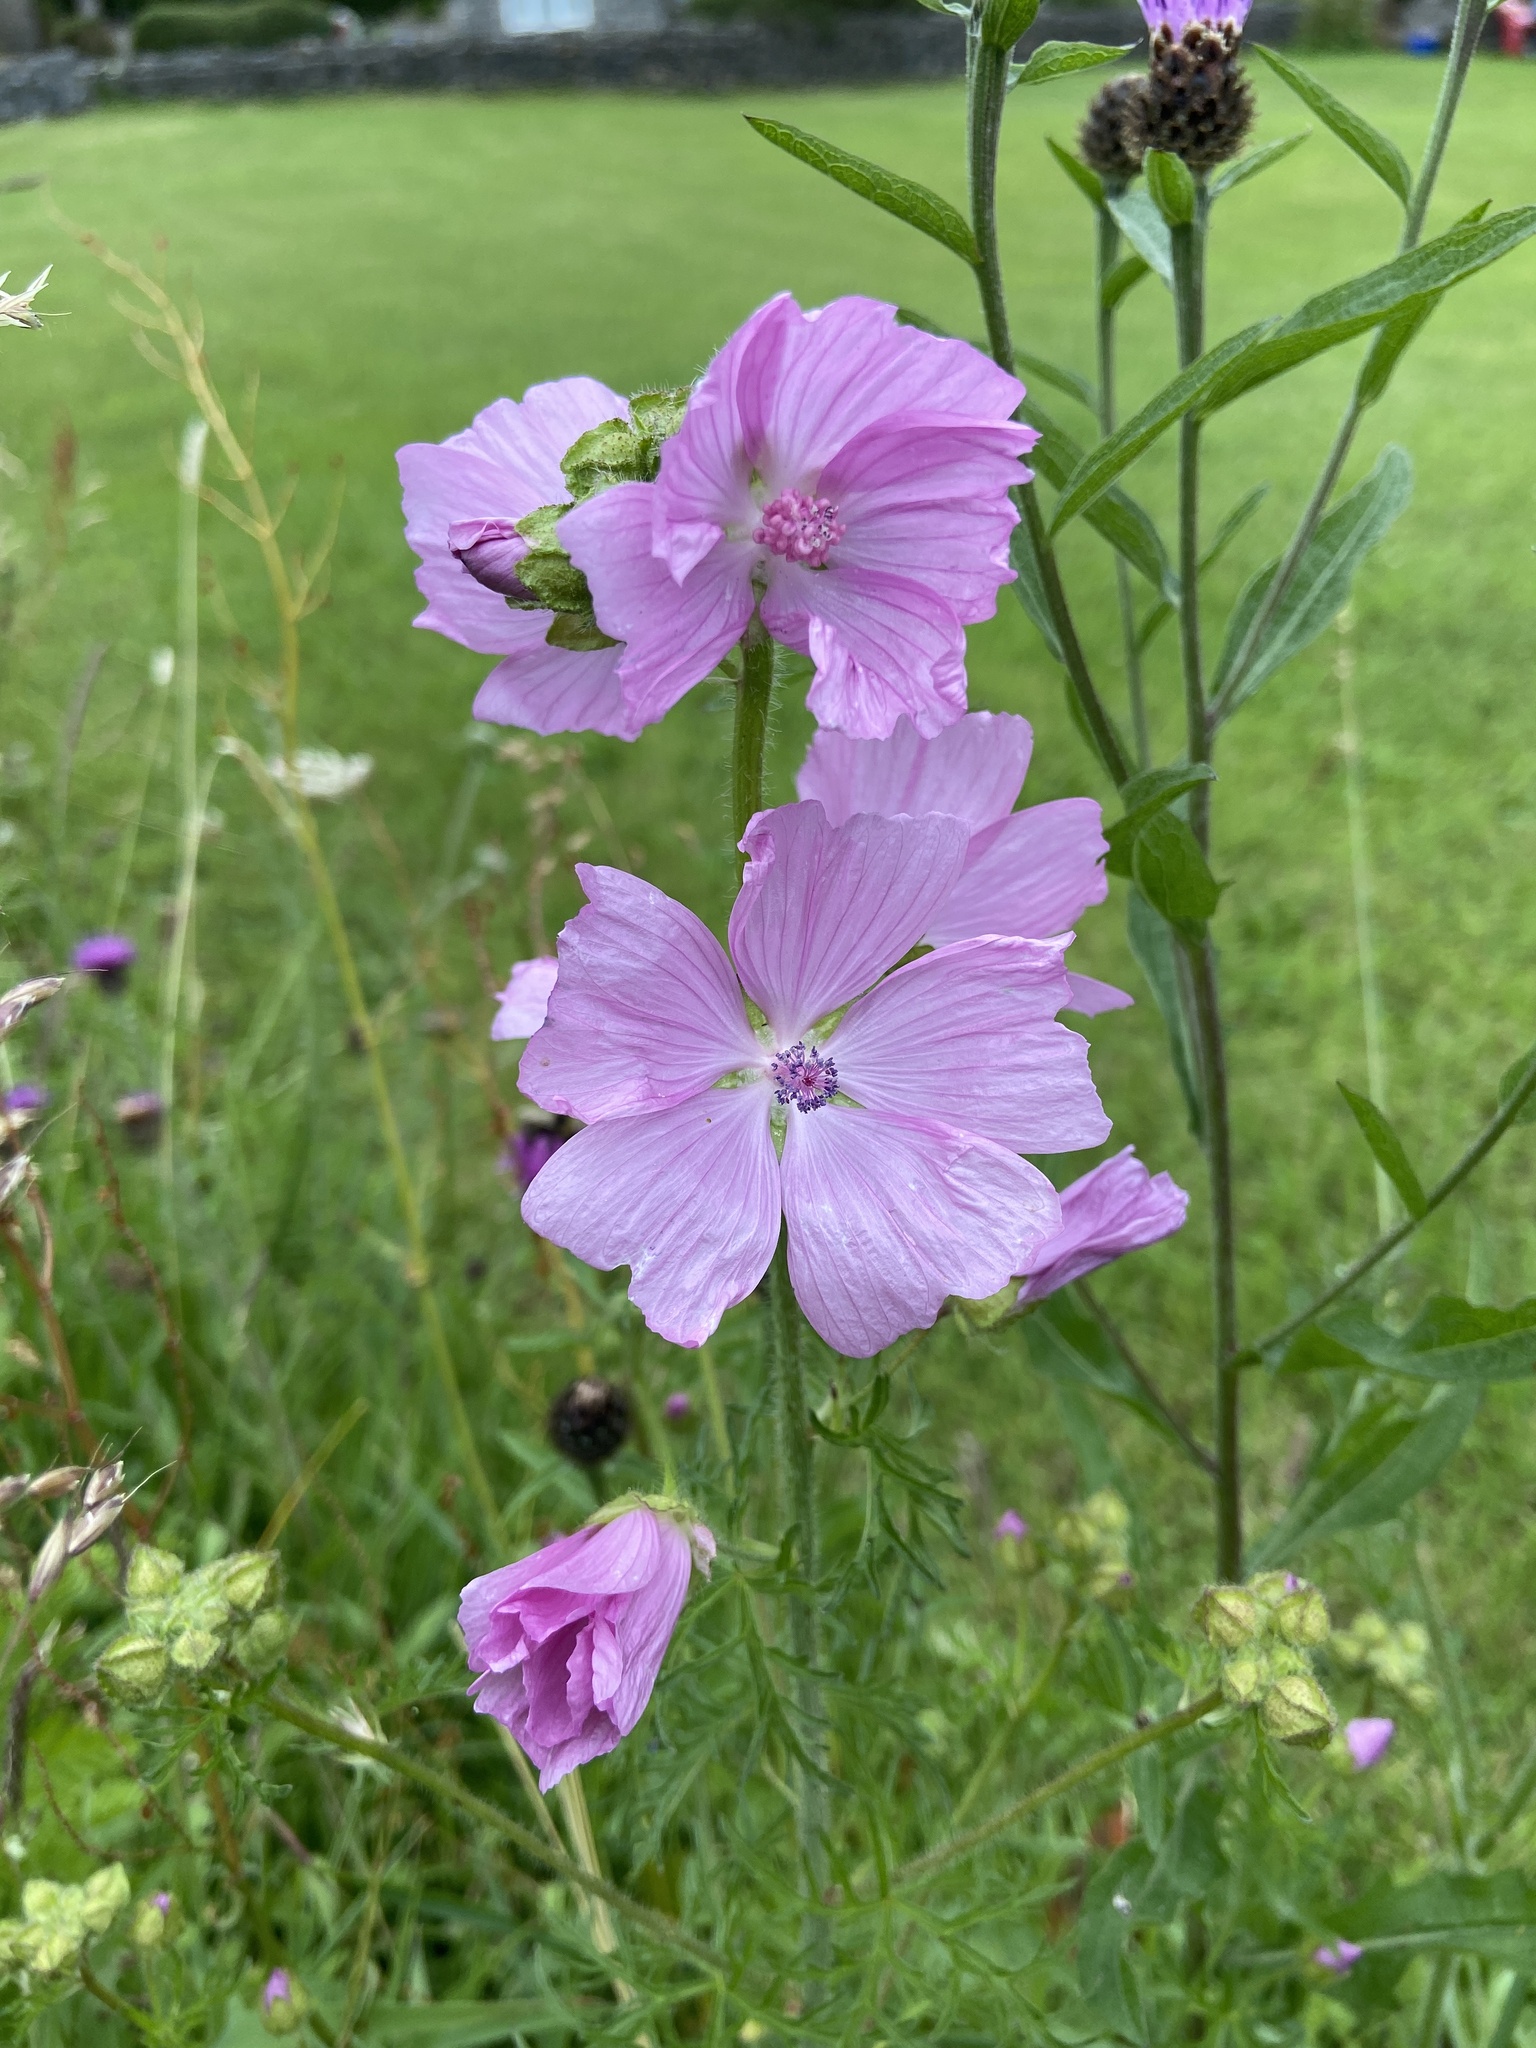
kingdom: Plantae
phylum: Tracheophyta
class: Magnoliopsida
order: Malvales
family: Malvaceae
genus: Malva
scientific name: Malva moschata
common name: Musk mallow
